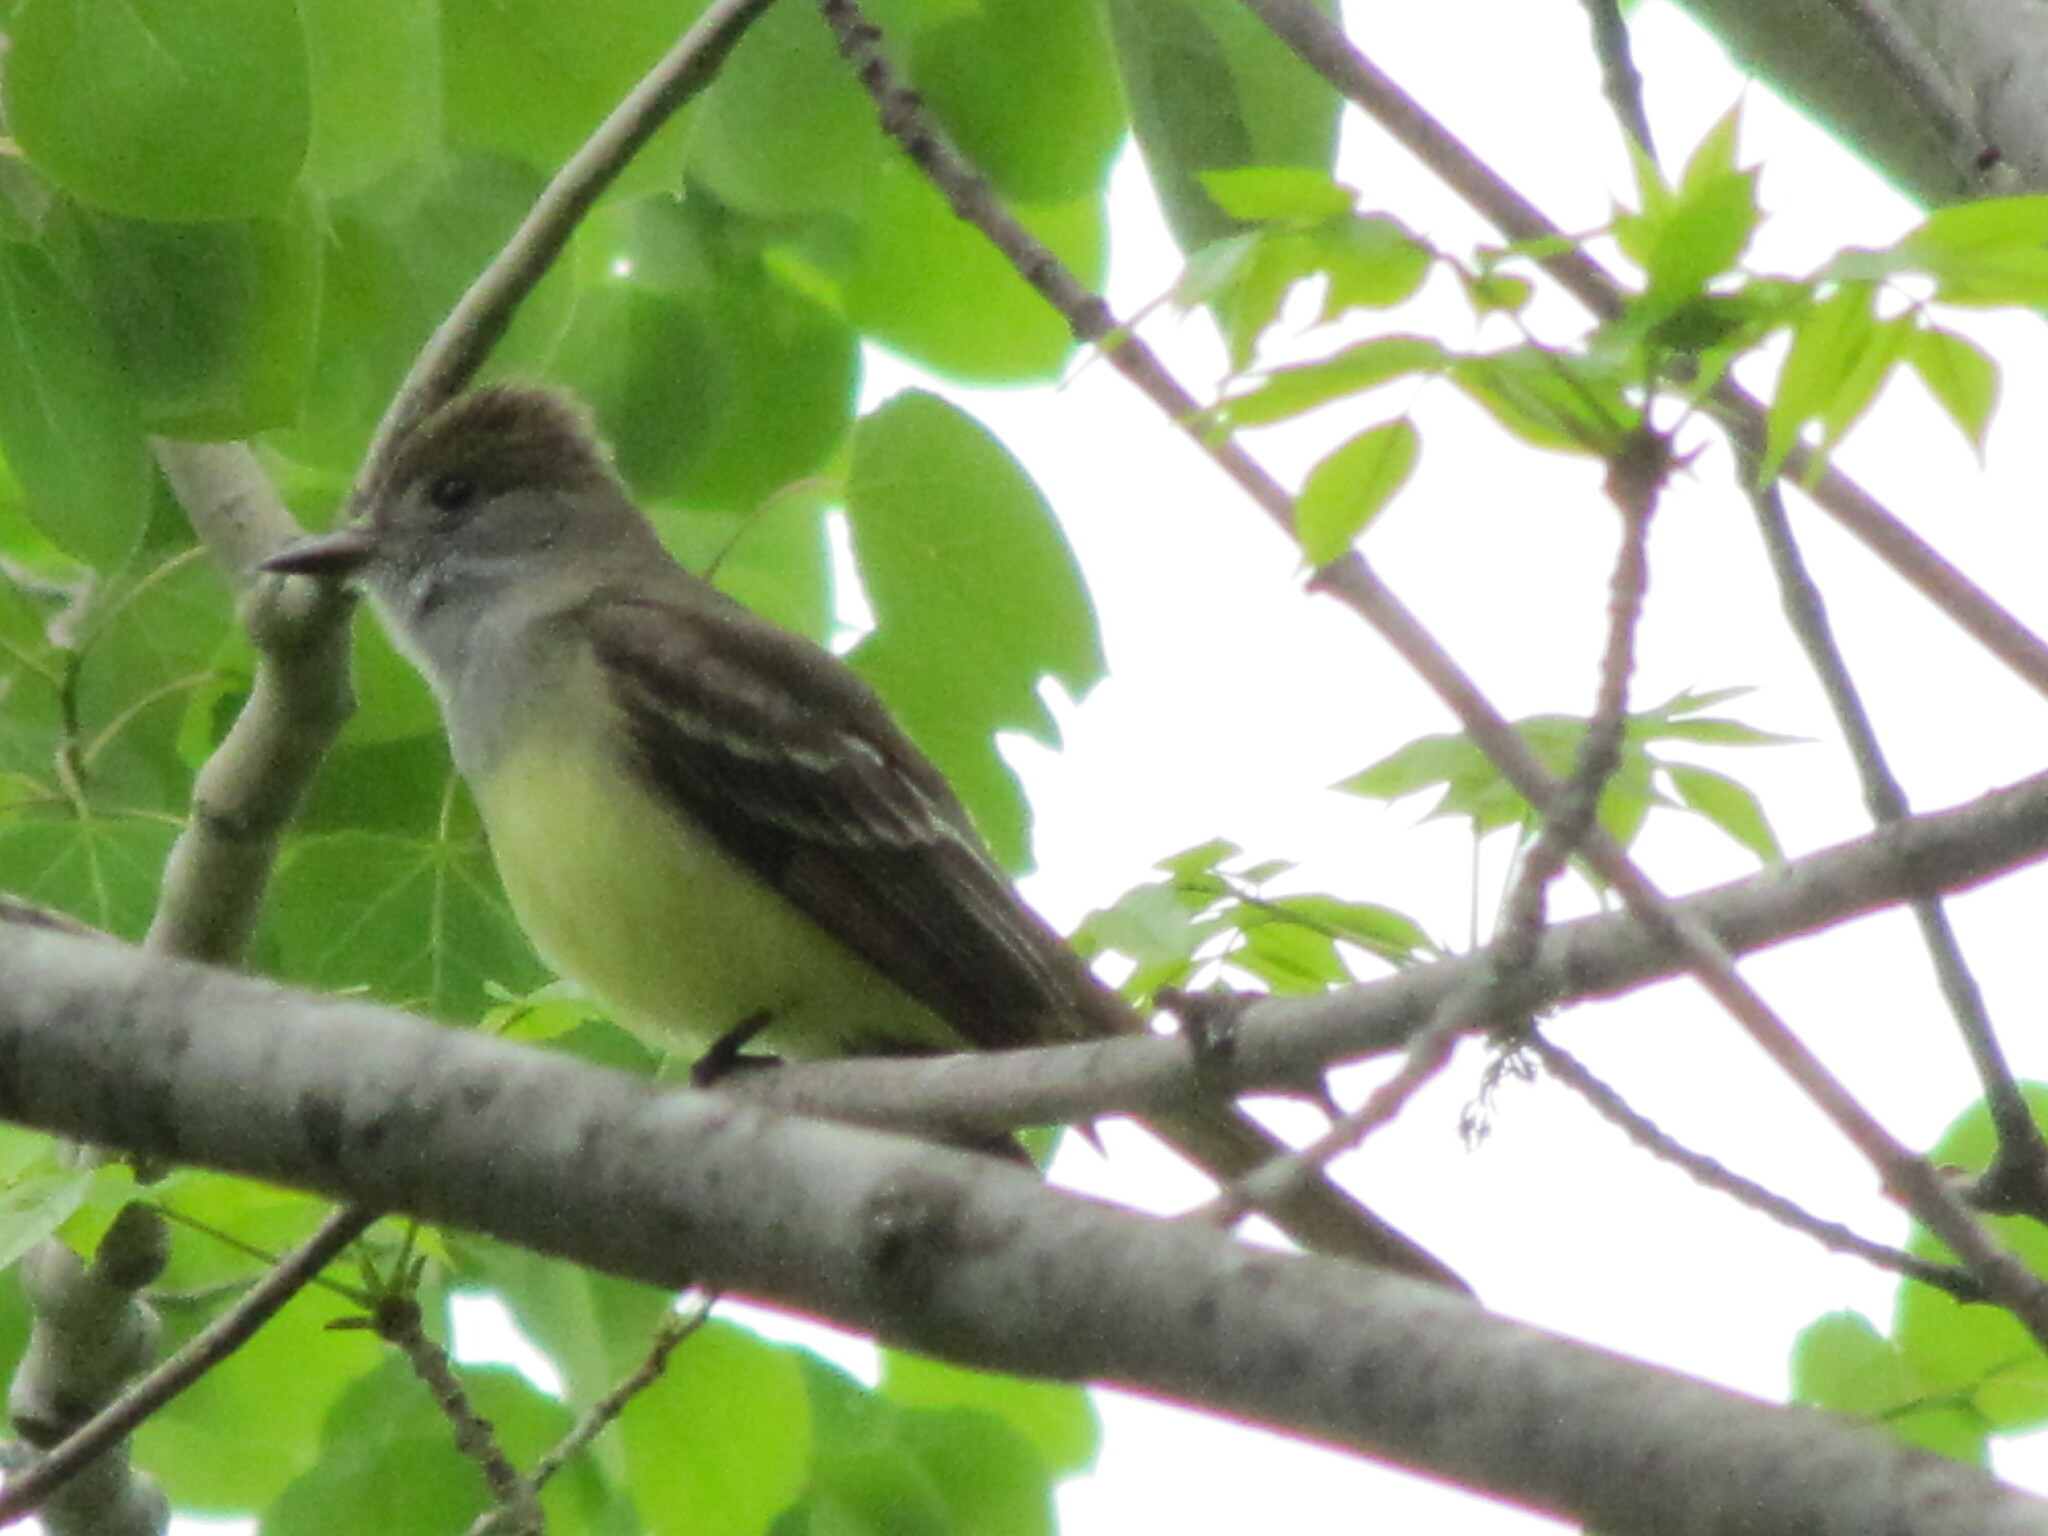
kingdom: Animalia
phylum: Chordata
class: Aves
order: Passeriformes
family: Tyrannidae
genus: Myiarchus
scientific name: Myiarchus crinitus
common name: Great crested flycatcher
